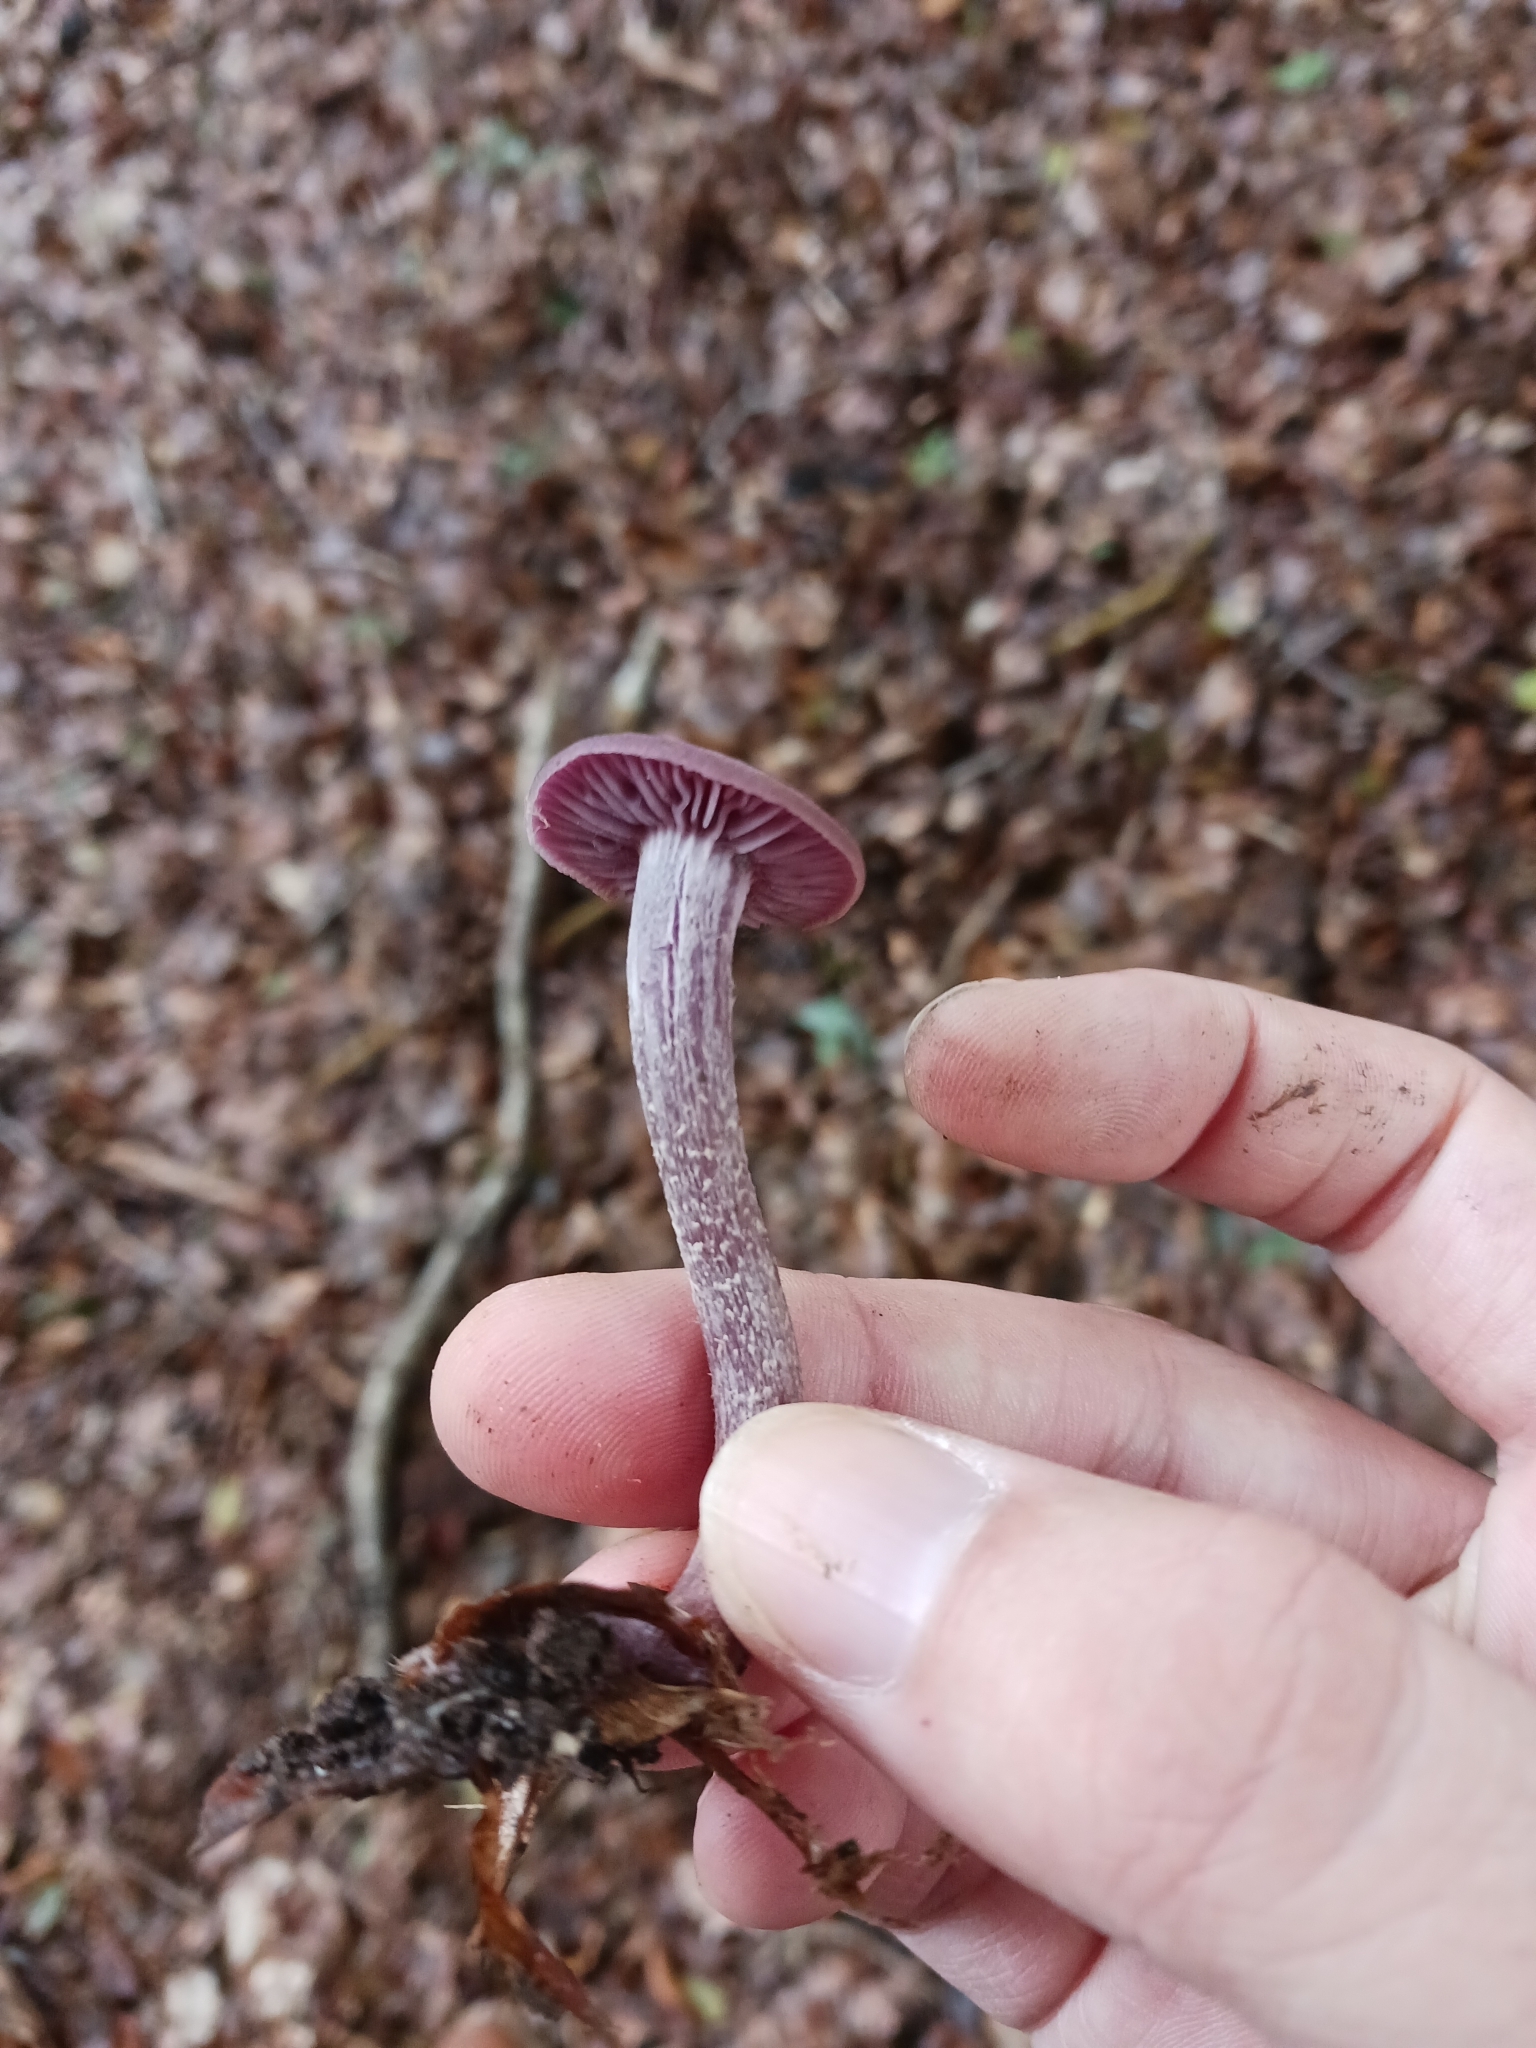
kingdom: Fungi
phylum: Basidiomycota
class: Agaricomycetes
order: Agaricales
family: Hydnangiaceae
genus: Laccaria
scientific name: Laccaria amethystina
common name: Amethyst deceiver
